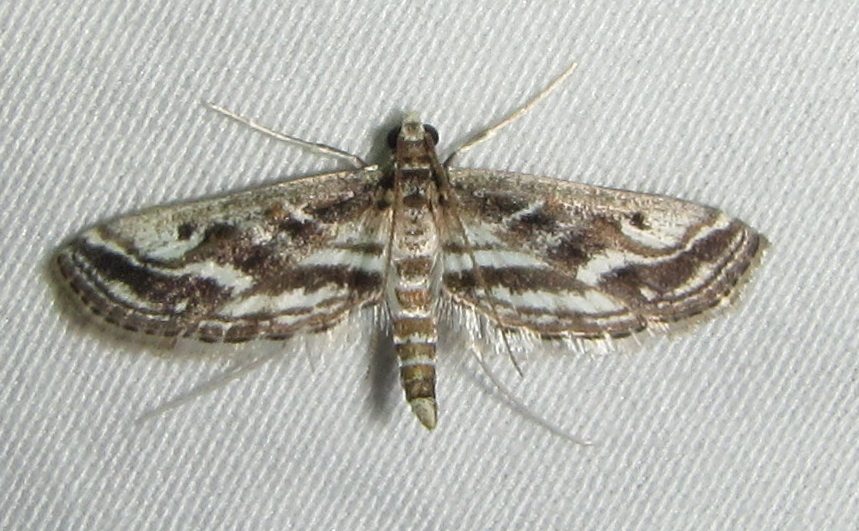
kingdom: Animalia
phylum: Arthropoda
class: Insecta
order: Lepidoptera
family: Crambidae
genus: Parapoynx
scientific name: Parapoynx fluctuosalis
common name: Moth
